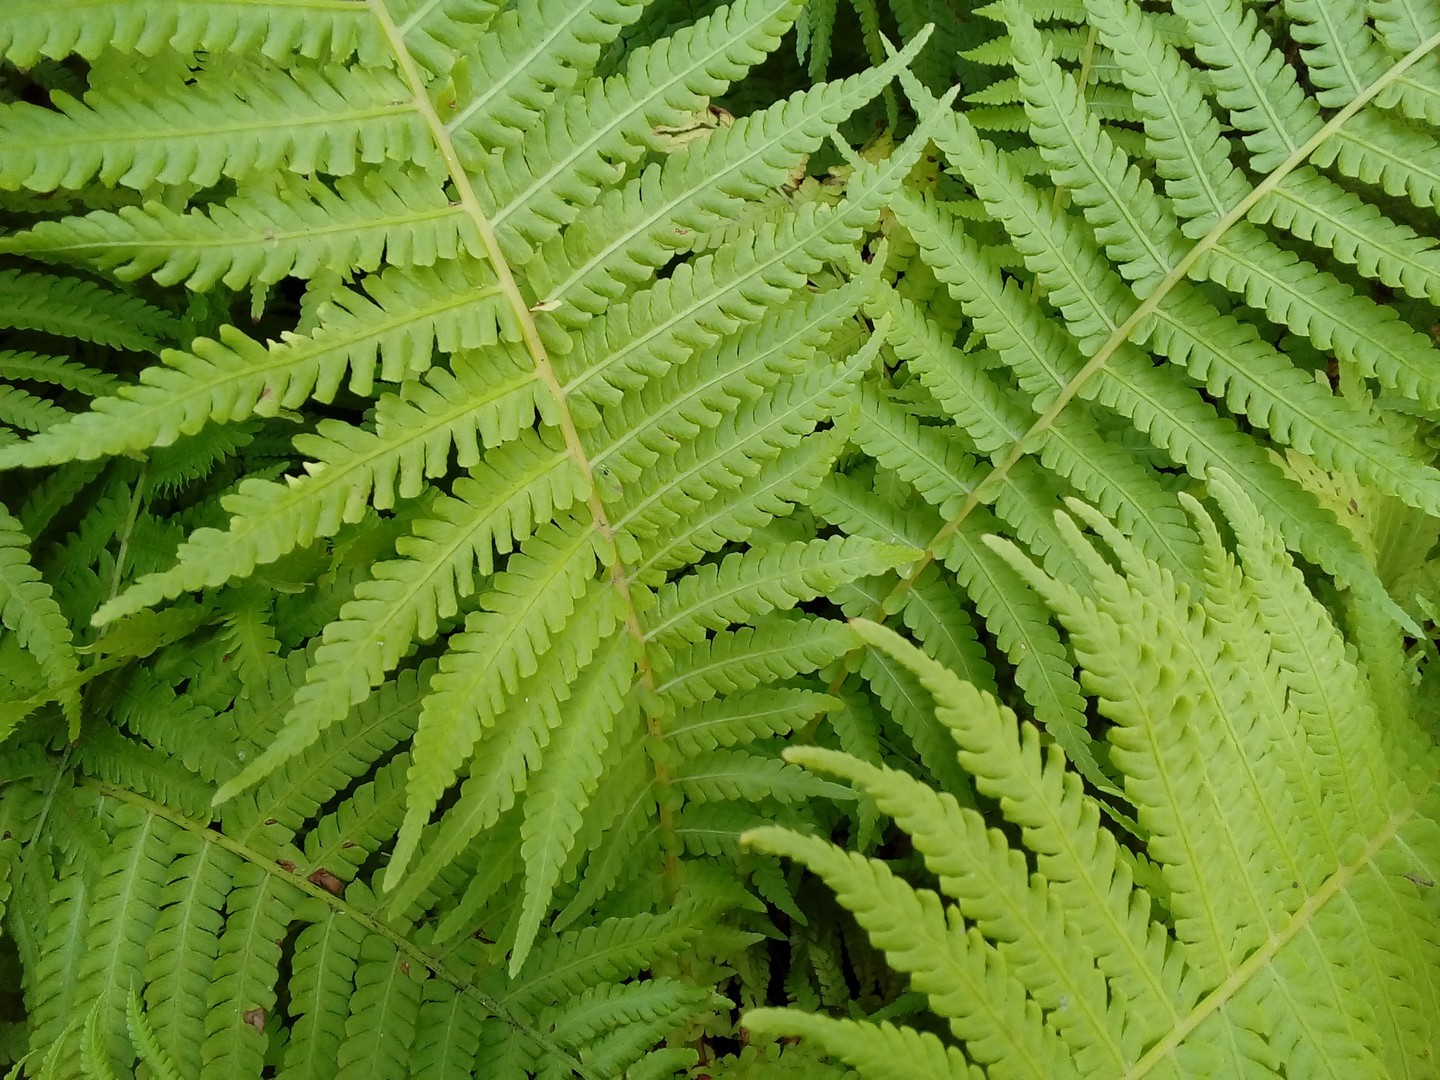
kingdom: Plantae
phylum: Tracheophyta
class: Polypodiopsida
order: Polypodiales
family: Onocleaceae
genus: Matteuccia
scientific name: Matteuccia struthiopteris
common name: Ostrich fern
